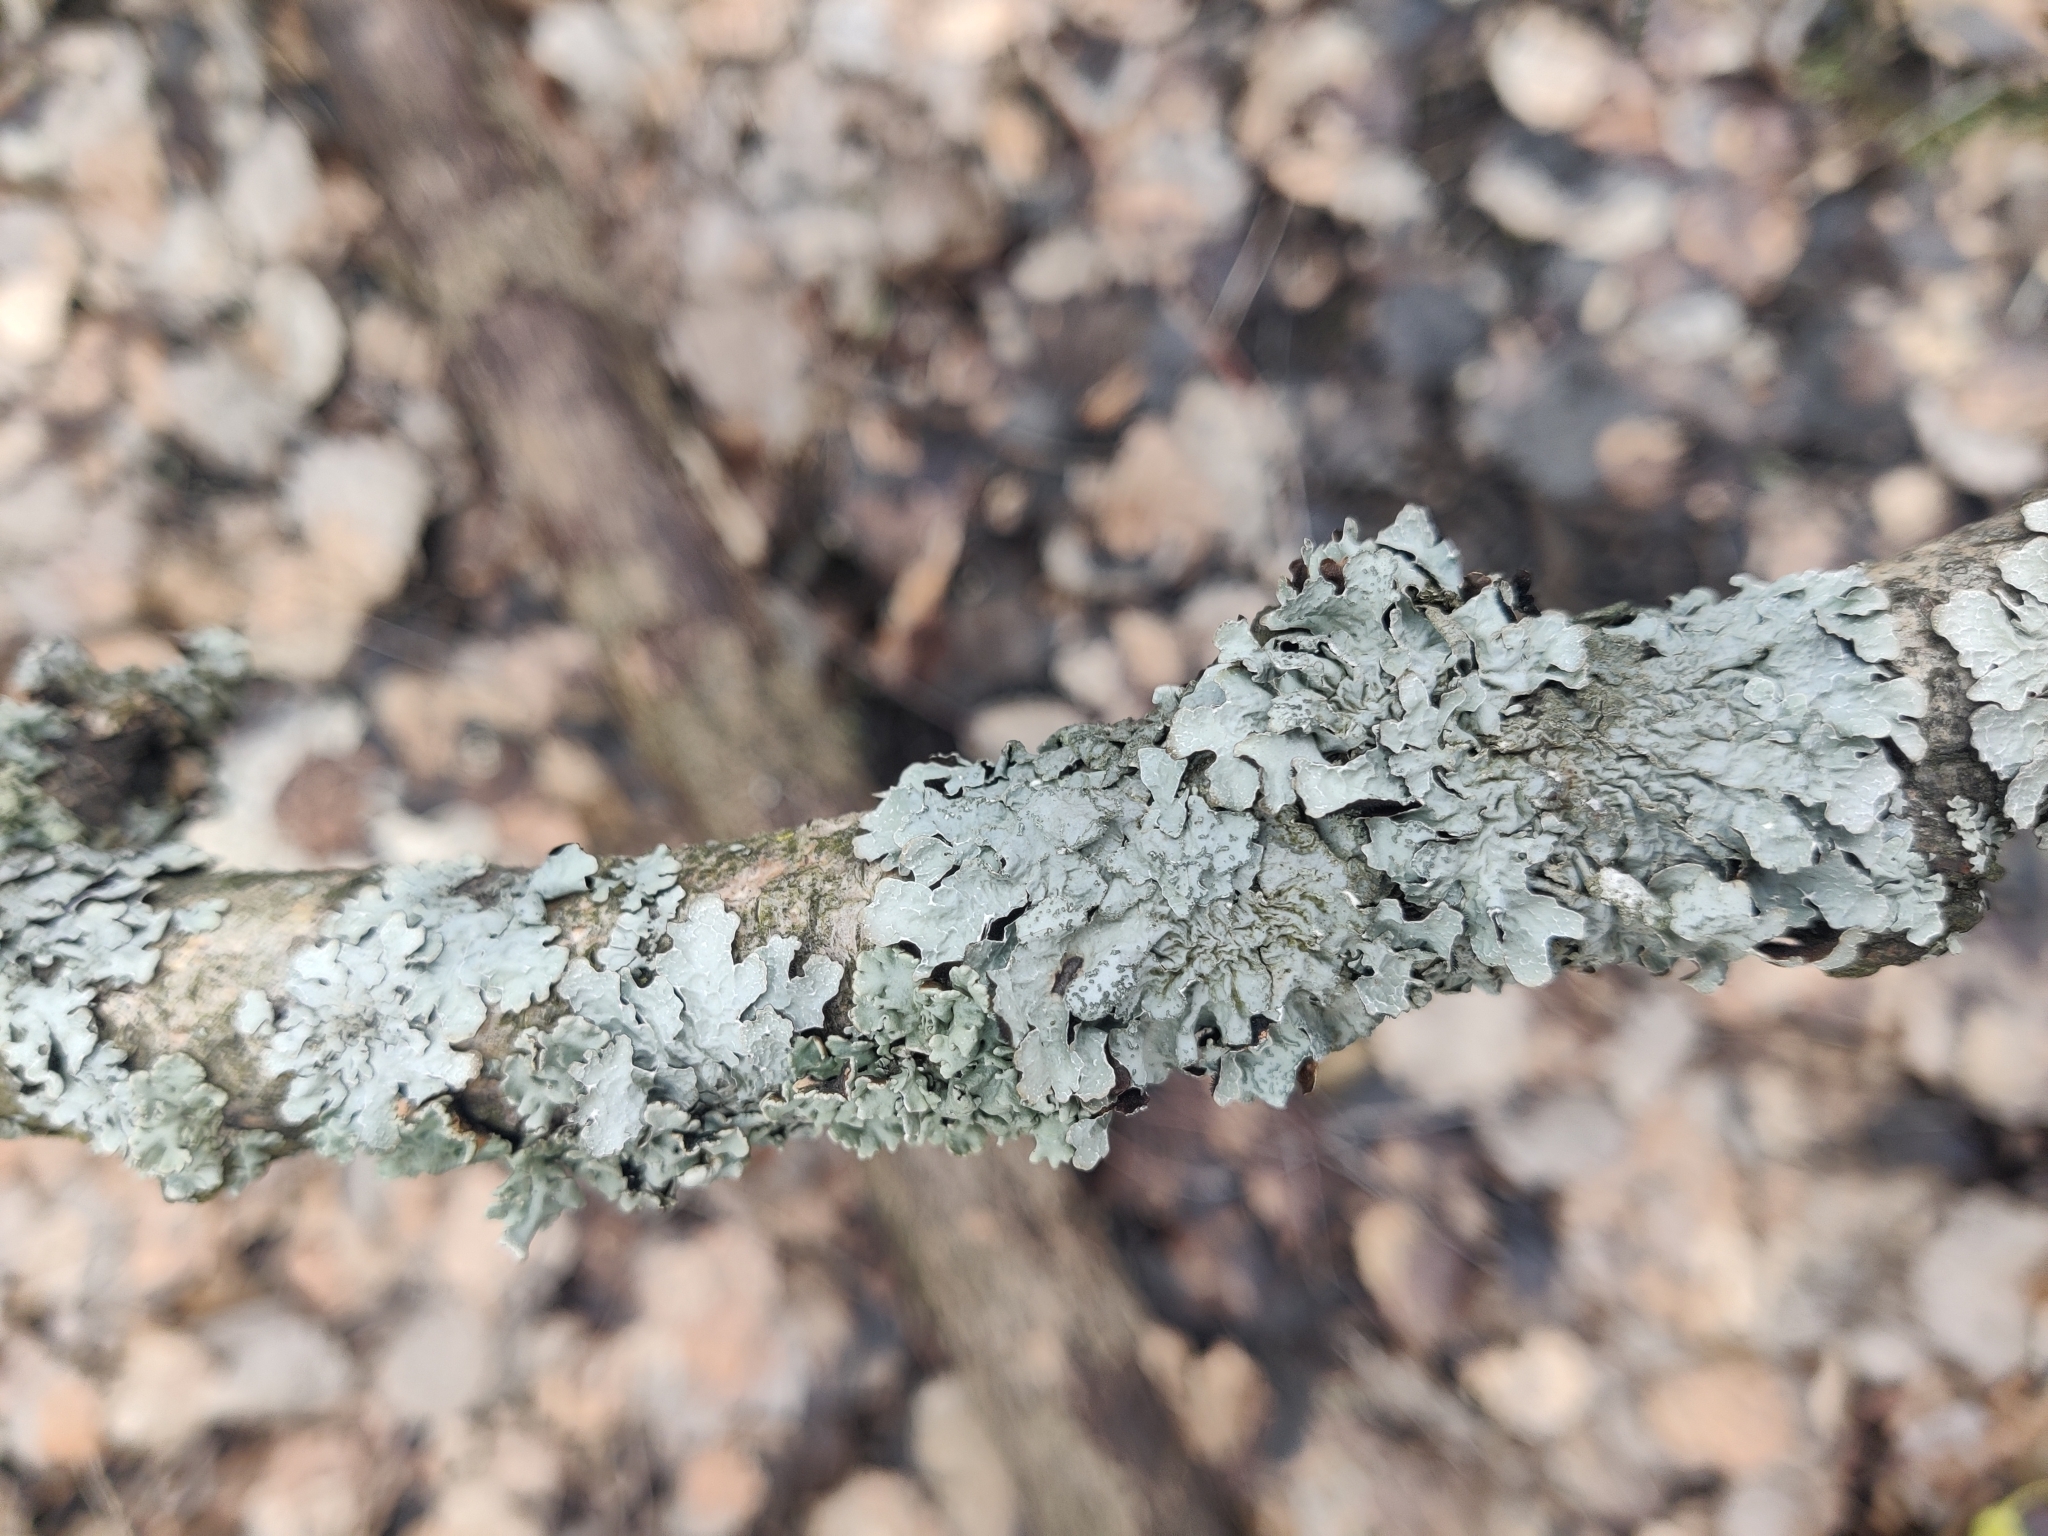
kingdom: Fungi
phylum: Ascomycota
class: Lecanoromycetes
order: Lecanorales
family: Parmeliaceae
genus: Parmelia
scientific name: Parmelia sulcata
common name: Netted shield lichen
